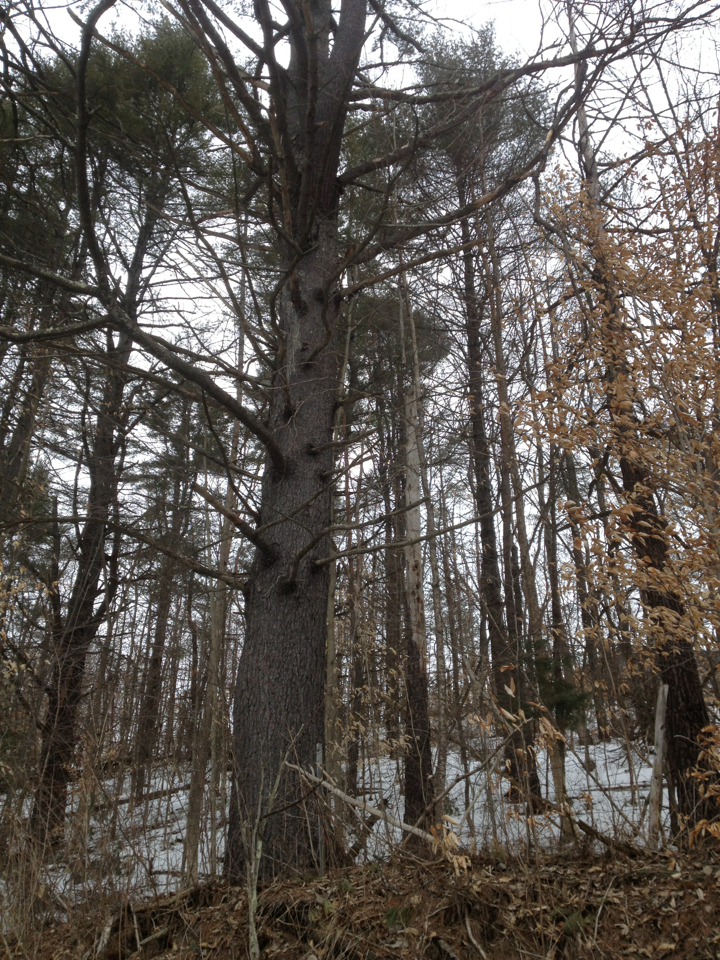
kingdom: Plantae
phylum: Tracheophyta
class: Pinopsida
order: Pinales
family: Pinaceae
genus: Pinus
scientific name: Pinus strobus
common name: Weymouth pine
